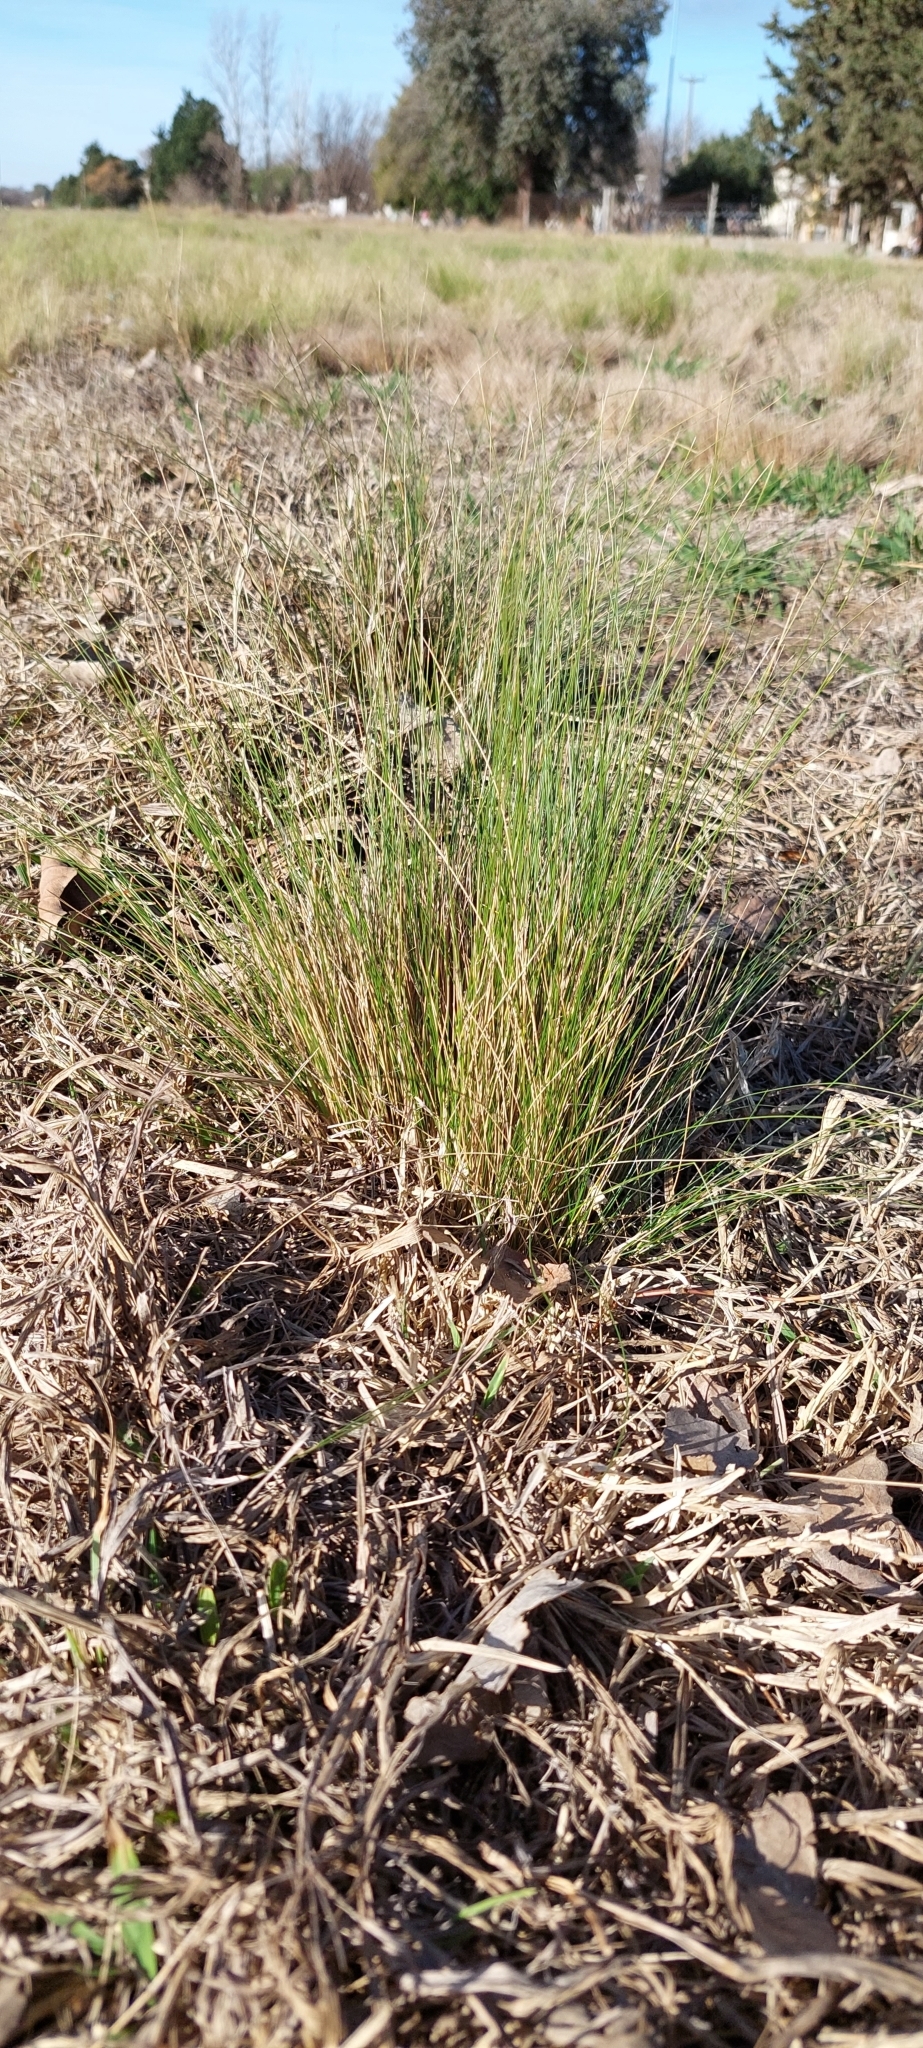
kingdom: Plantae
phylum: Tracheophyta
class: Liliopsida
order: Poales
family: Poaceae
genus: Nassella
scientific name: Nassella trichotoma
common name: Serrated tussock grass
